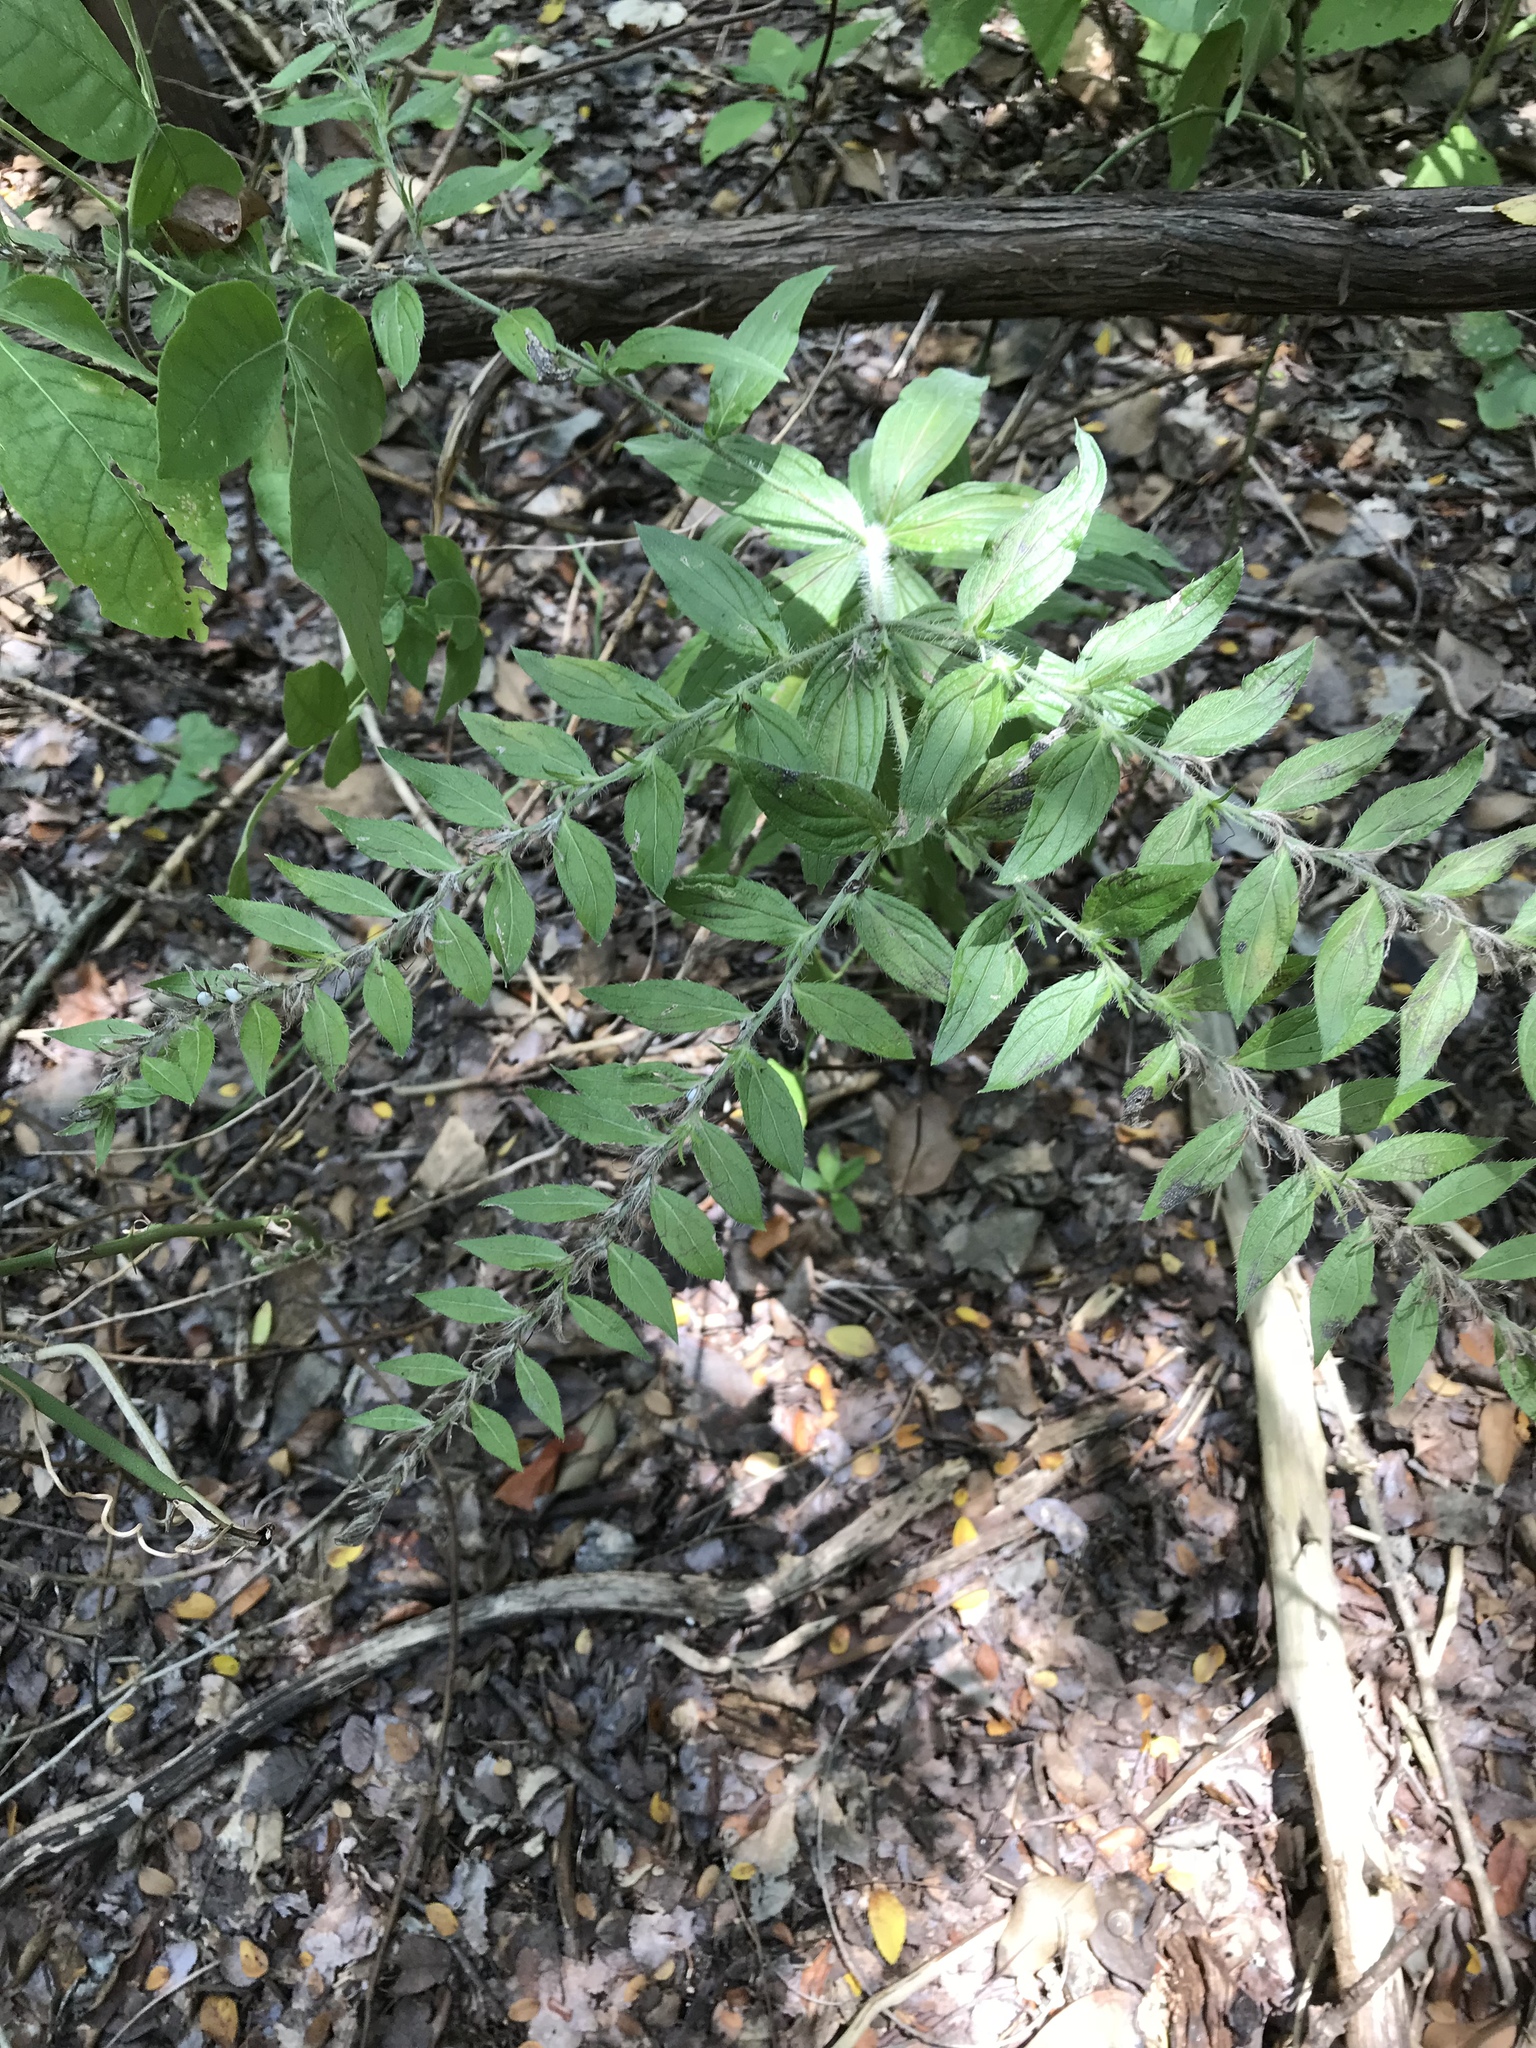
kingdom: Plantae
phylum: Tracheophyta
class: Magnoliopsida
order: Boraginales
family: Boraginaceae
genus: Lithospermum
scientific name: Lithospermum caroliniense
